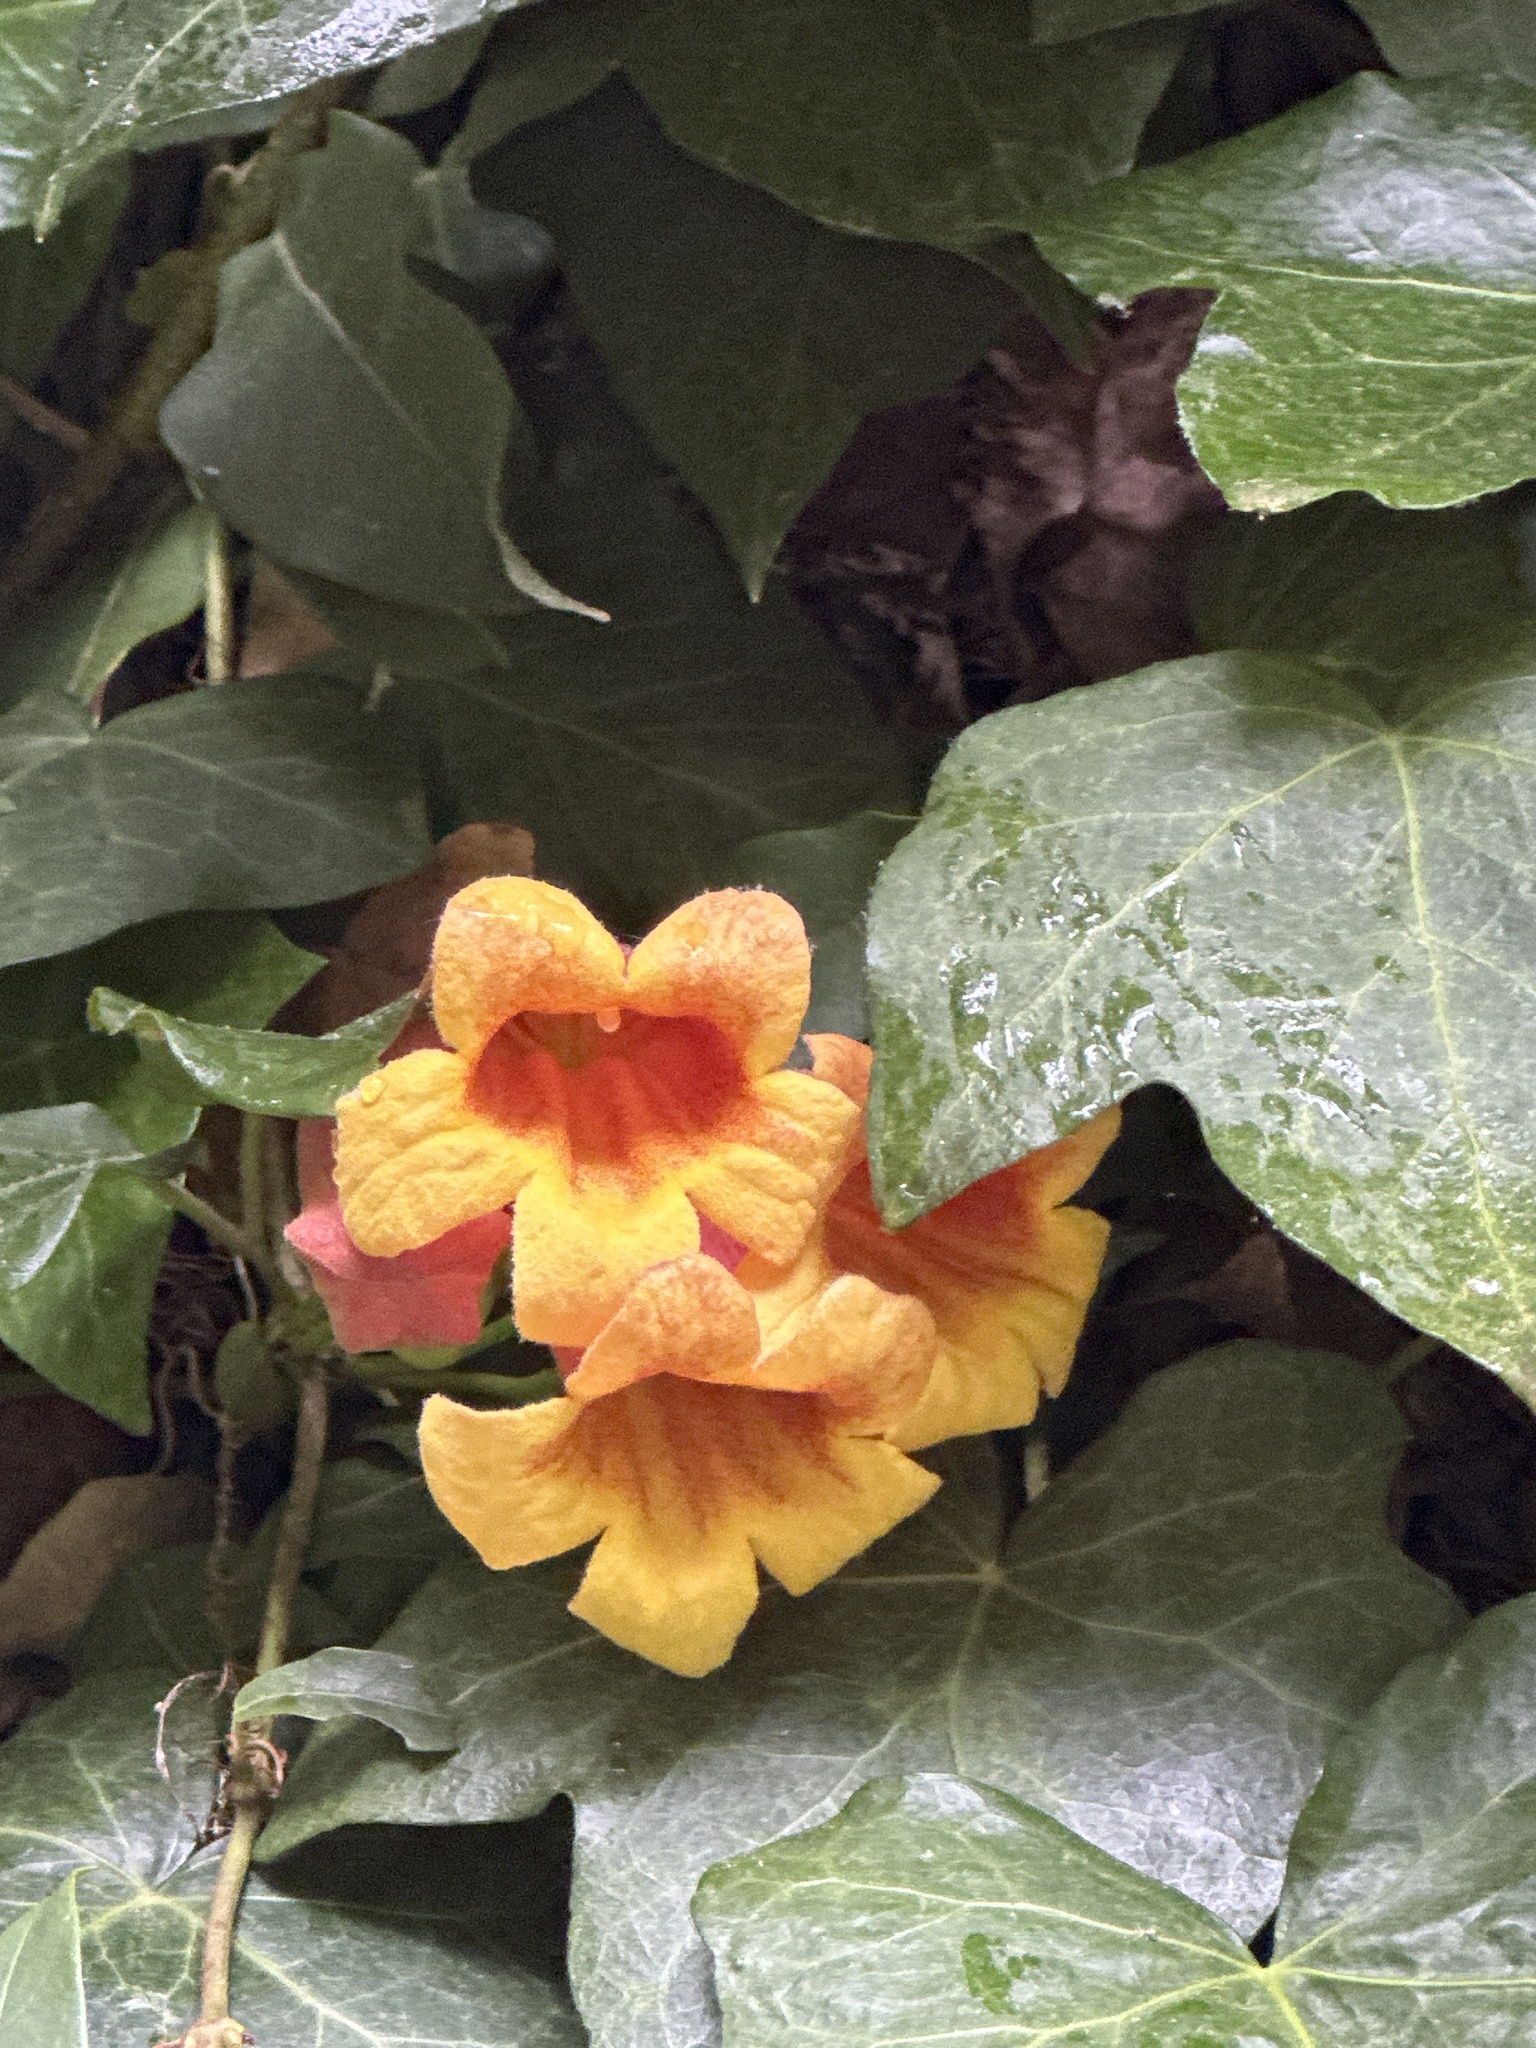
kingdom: Plantae
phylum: Tracheophyta
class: Magnoliopsida
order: Lamiales
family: Bignoniaceae
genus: Bignonia
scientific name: Bignonia capreolata
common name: Crossvine
